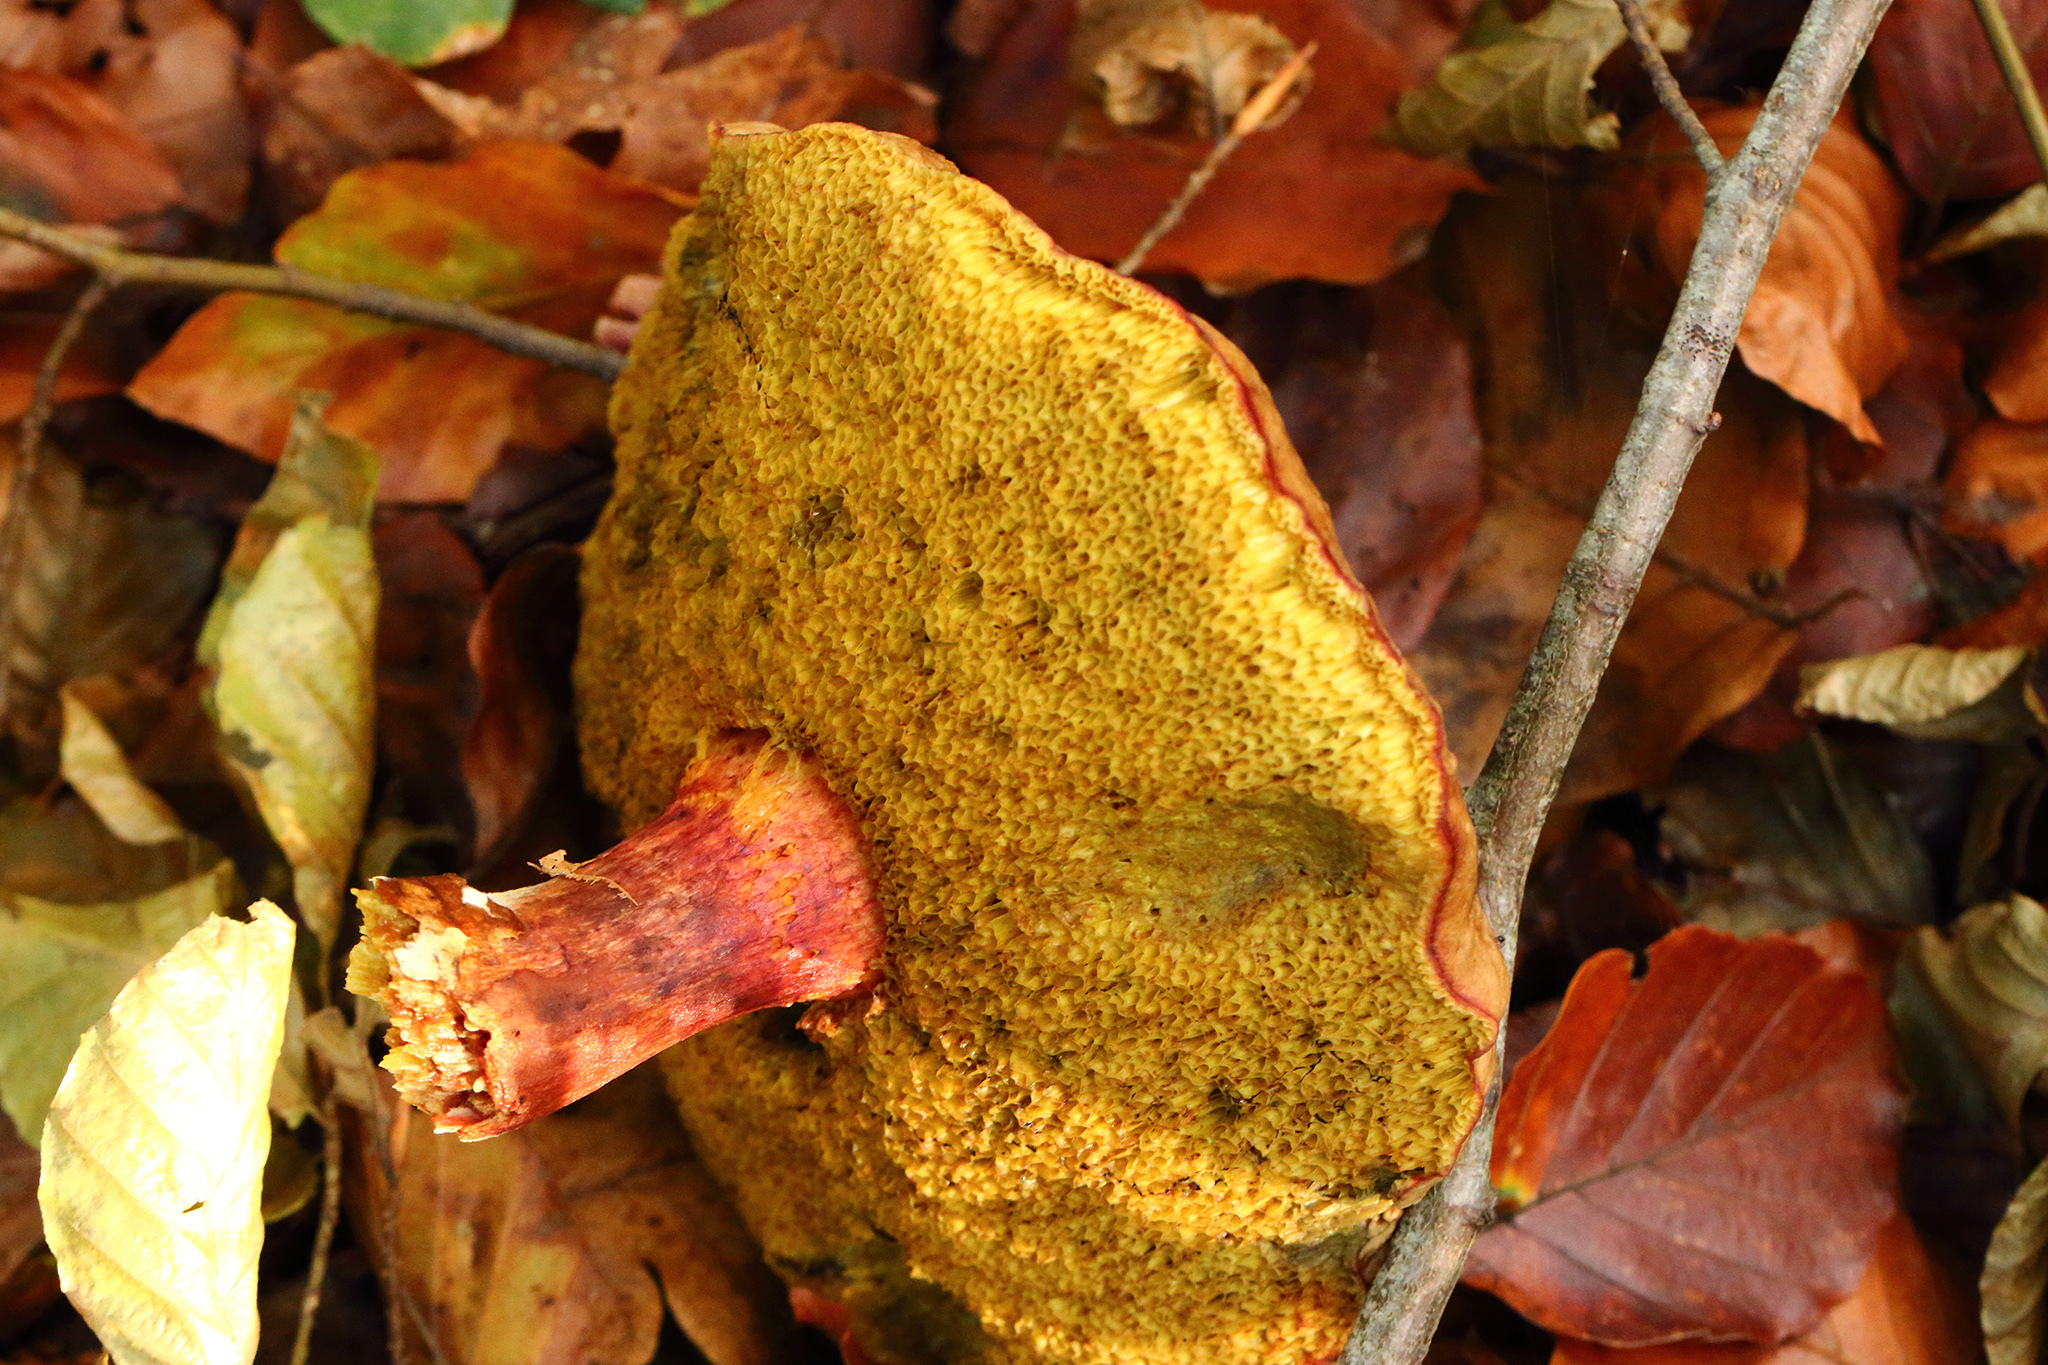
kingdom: Fungi
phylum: Basidiomycota
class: Agaricomycetes
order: Boletales
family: Boletaceae
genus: Xerocomellus
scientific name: Xerocomellus pruinatus
